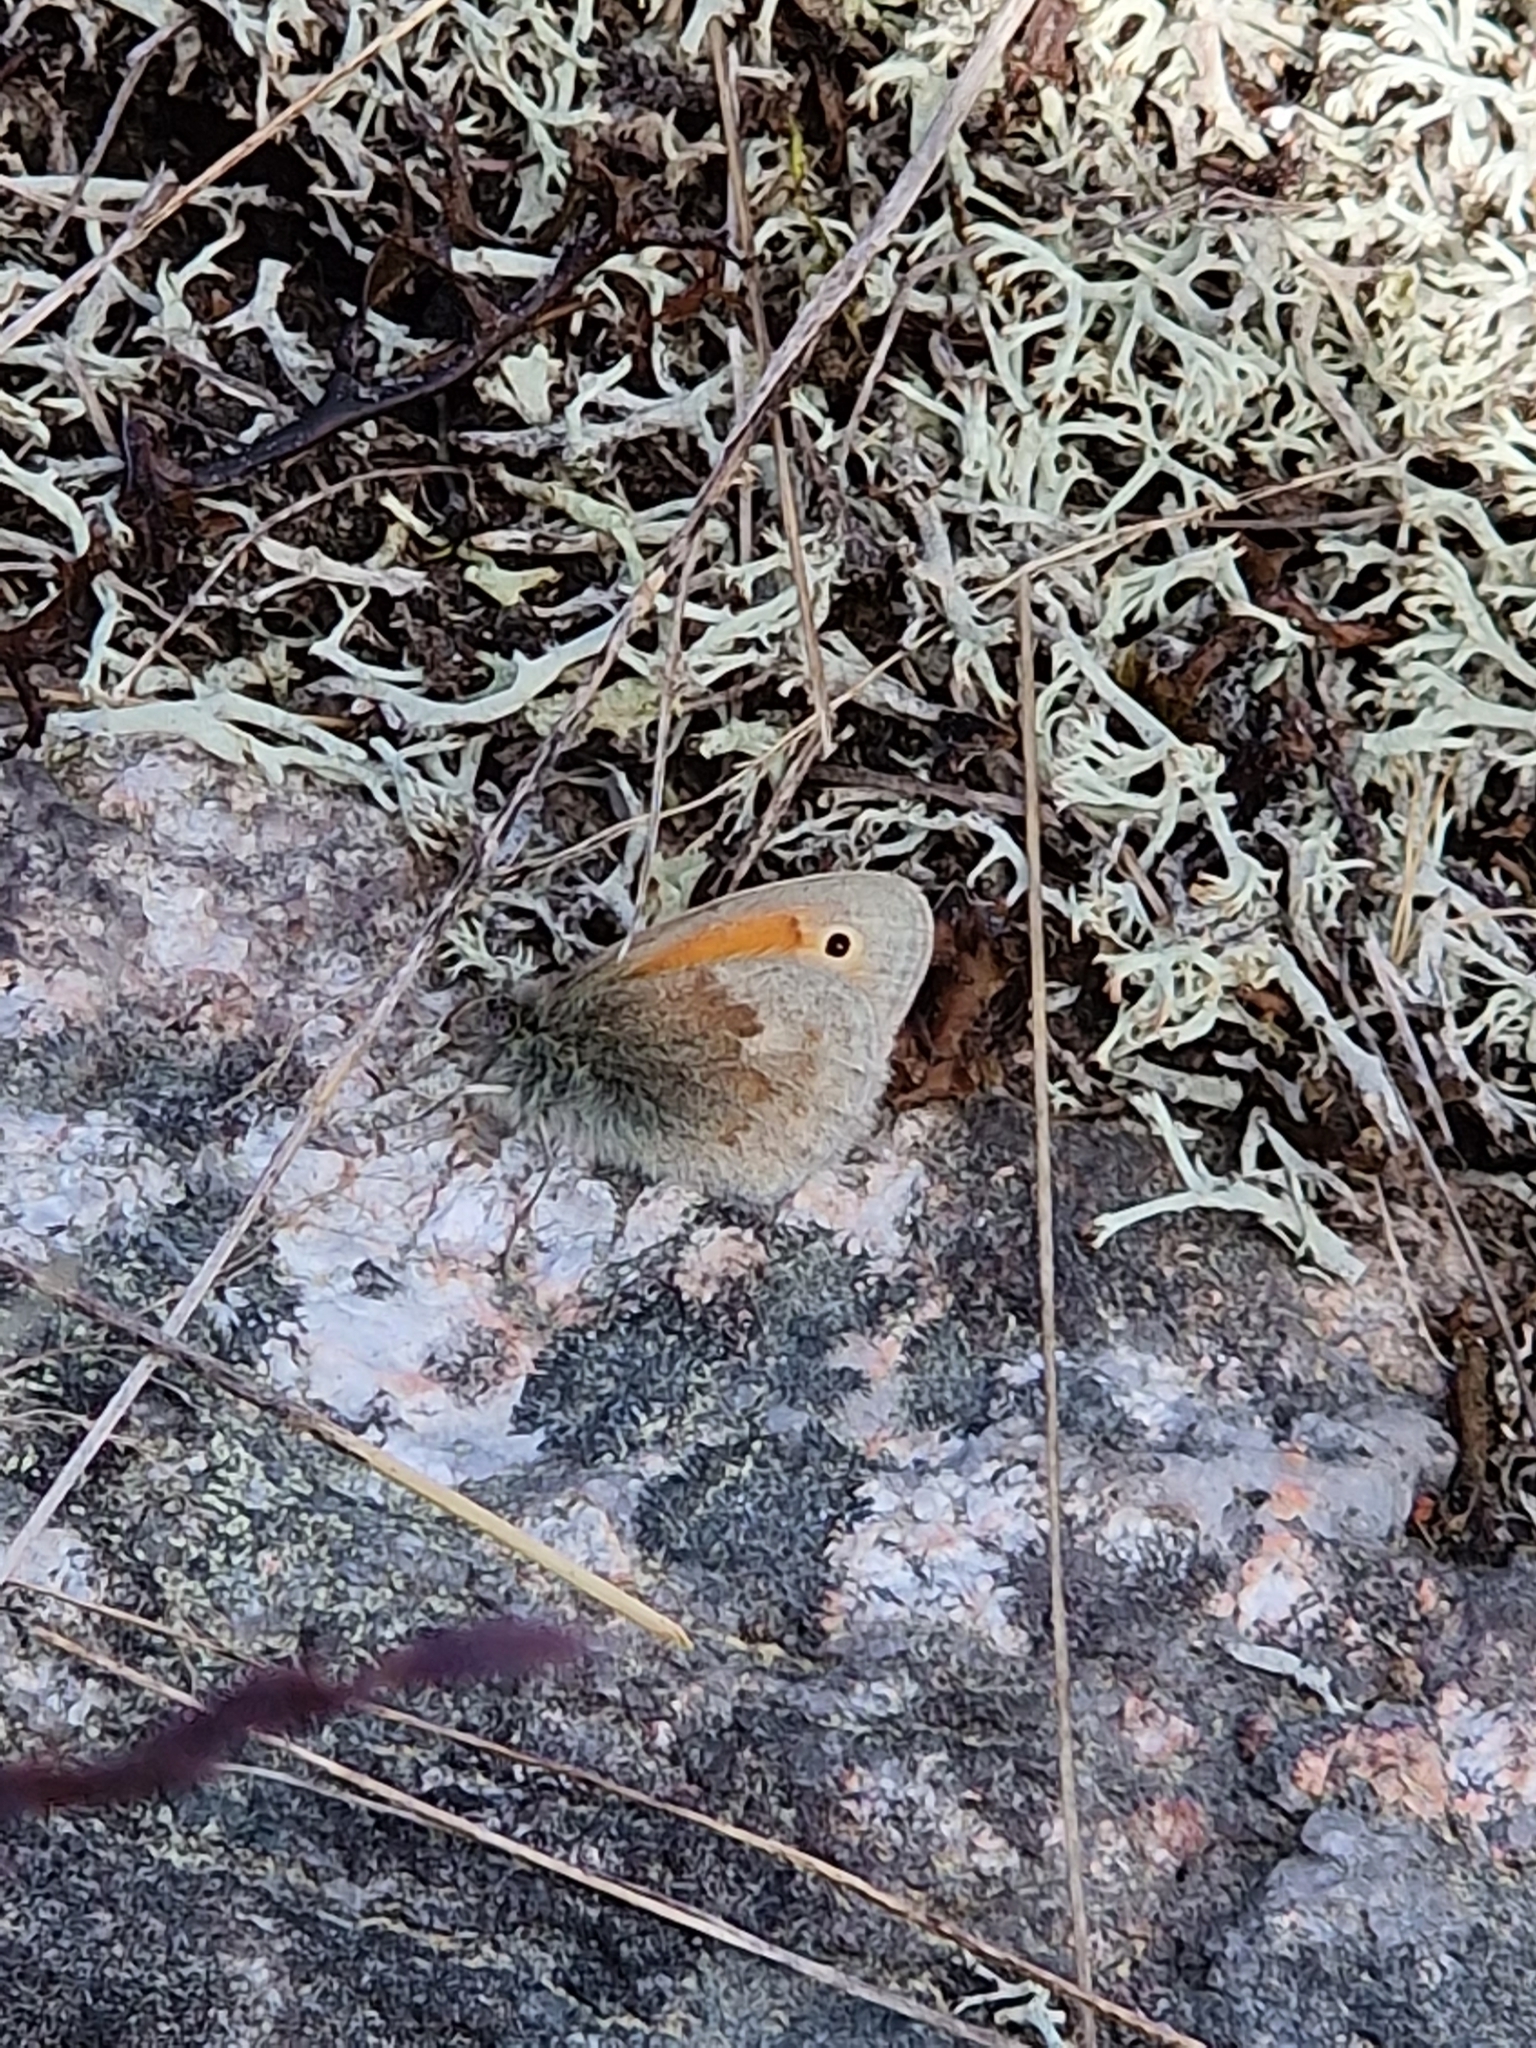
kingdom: Animalia
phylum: Arthropoda
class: Insecta
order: Lepidoptera
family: Nymphalidae
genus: Coenonympha
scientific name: Coenonympha pamphilus
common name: Small heath
